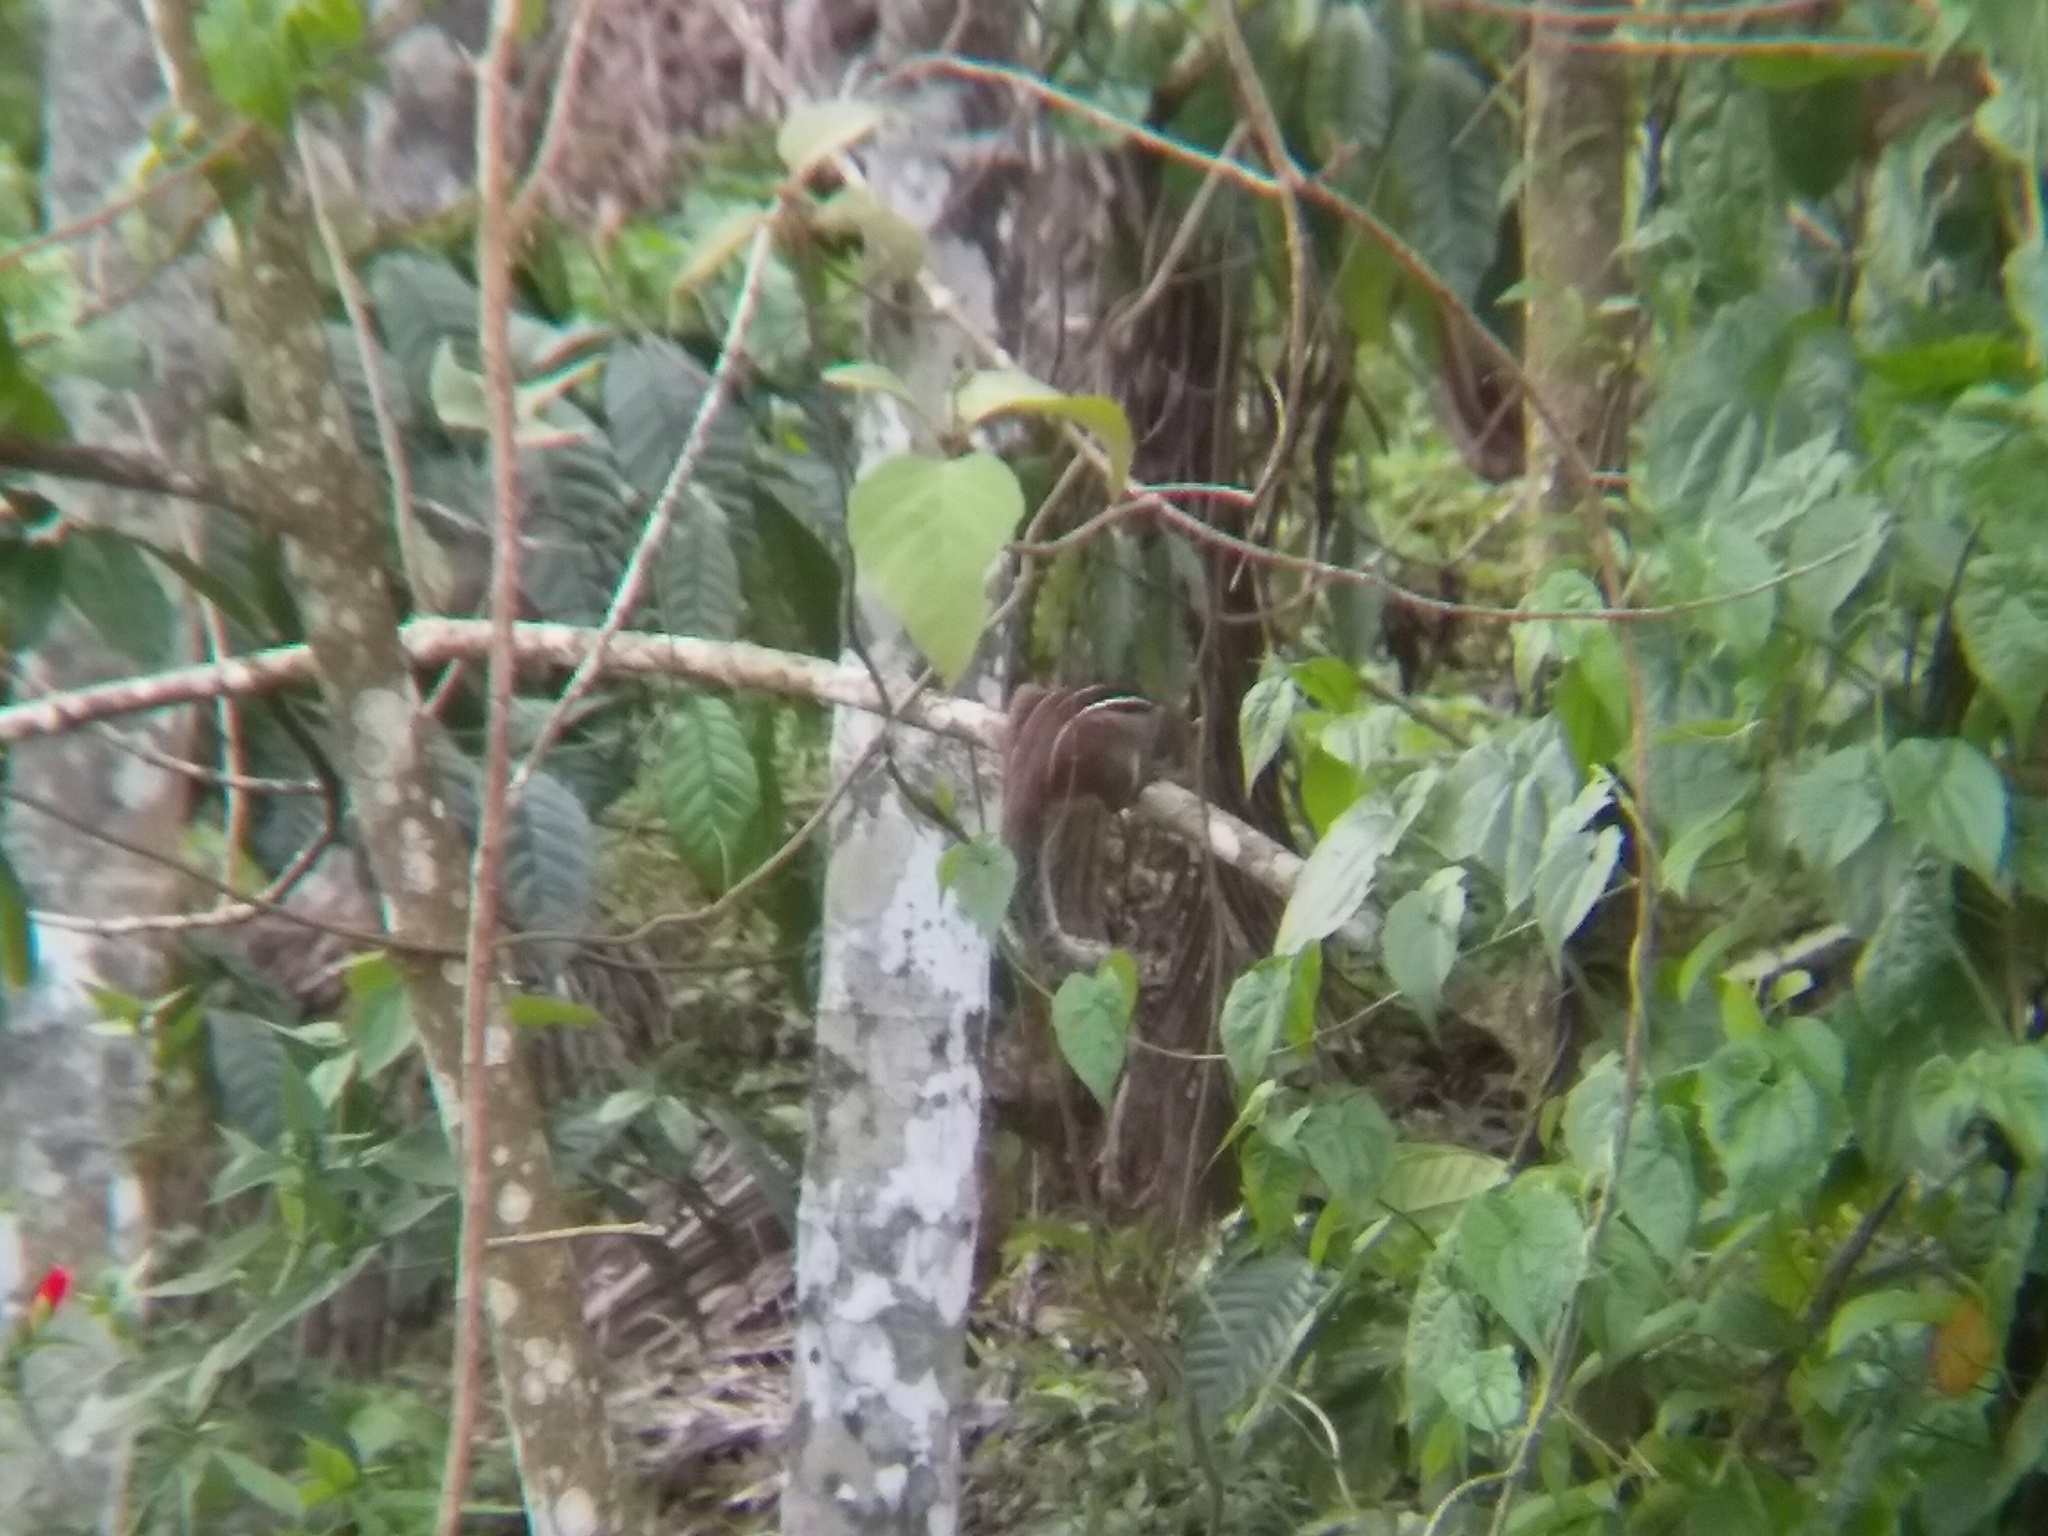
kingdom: Animalia
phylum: Chordata
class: Mammalia
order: Rodentia
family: Sciuridae
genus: Funambulus
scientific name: Funambulus tristriatus
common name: Jungle palm squirrel
